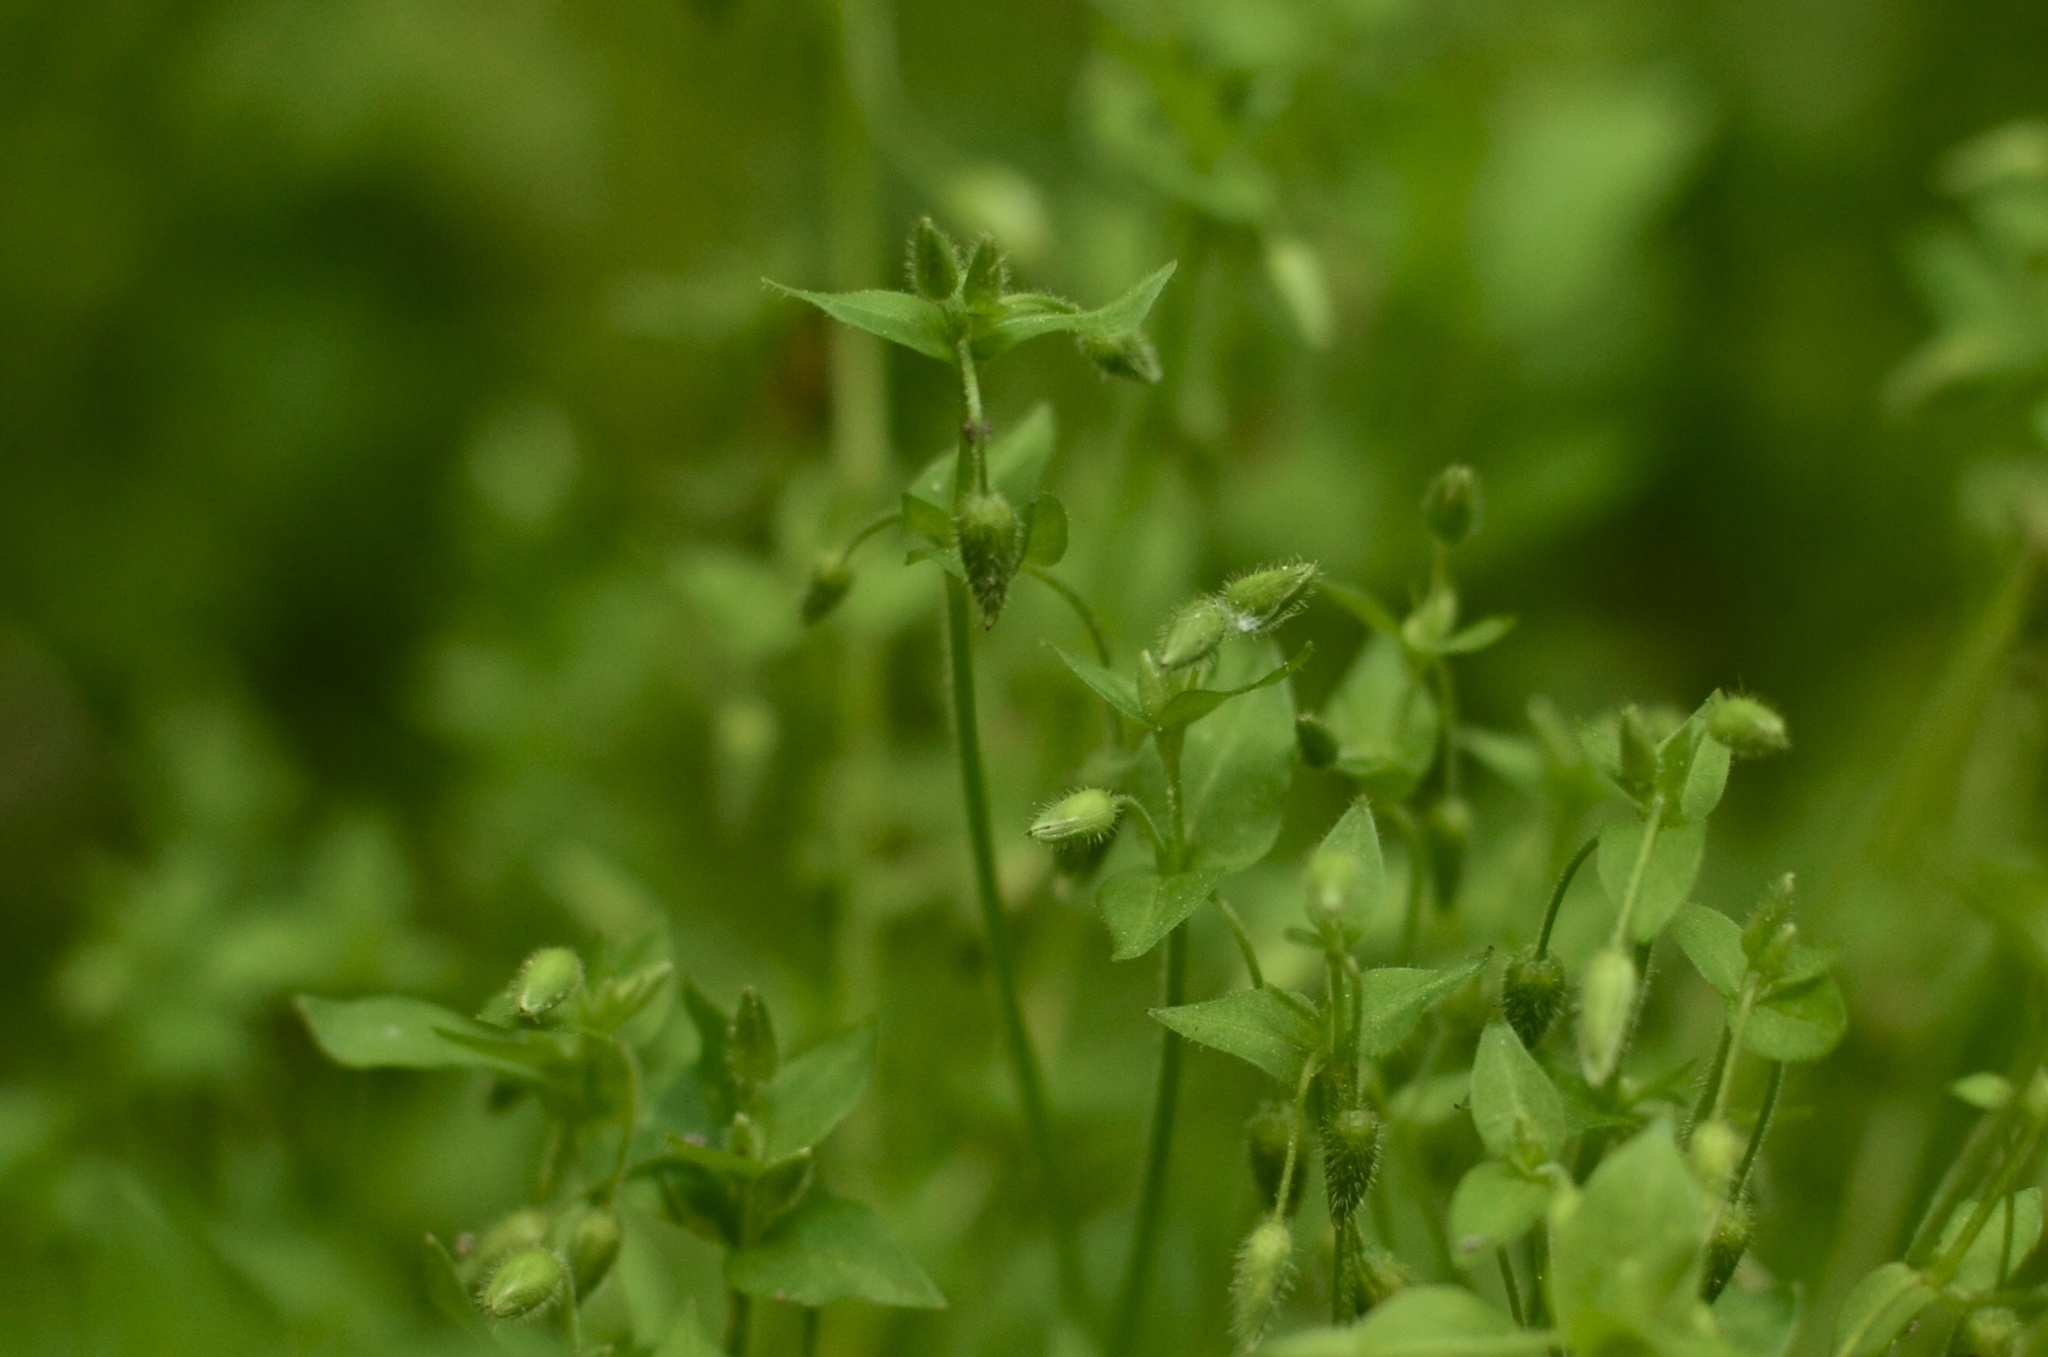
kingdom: Plantae
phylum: Tracheophyta
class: Magnoliopsida
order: Caryophyllales
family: Caryophyllaceae
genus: Stellaria
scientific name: Stellaria media
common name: Common chickweed
